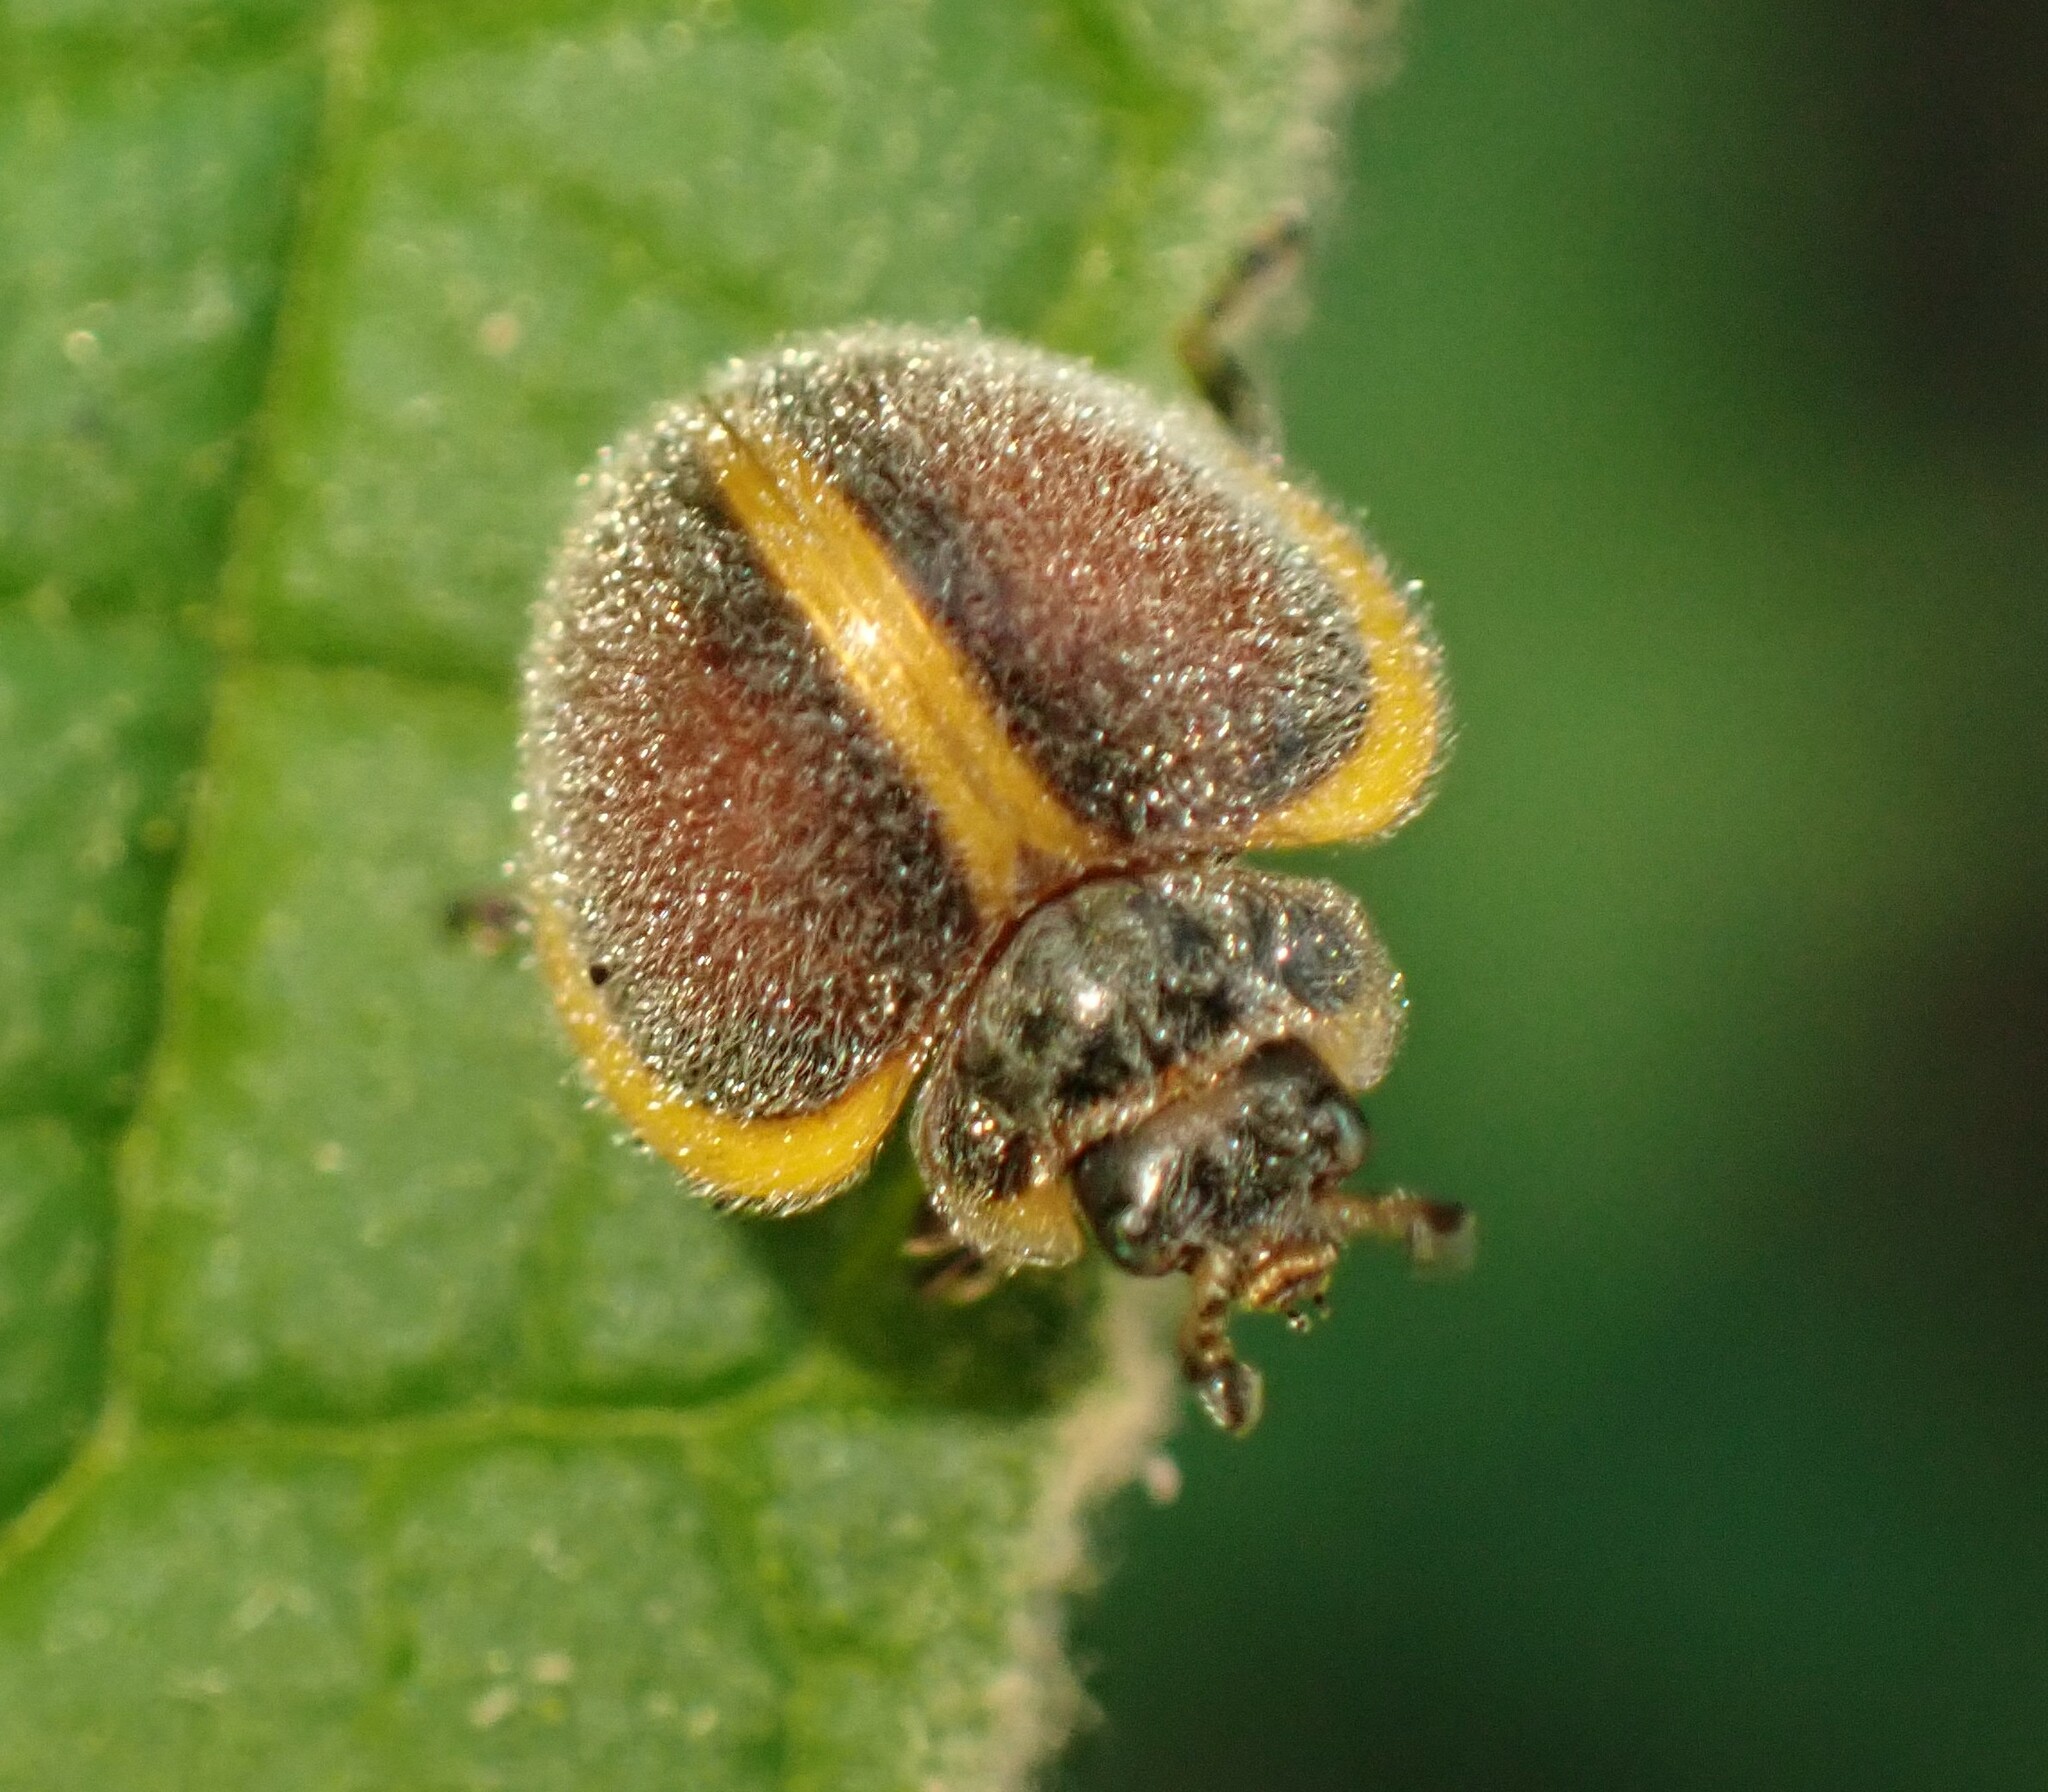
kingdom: Animalia
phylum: Arthropoda
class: Insecta
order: Coleoptera
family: Coccinellidae
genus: Epilachna
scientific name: Epilachna
